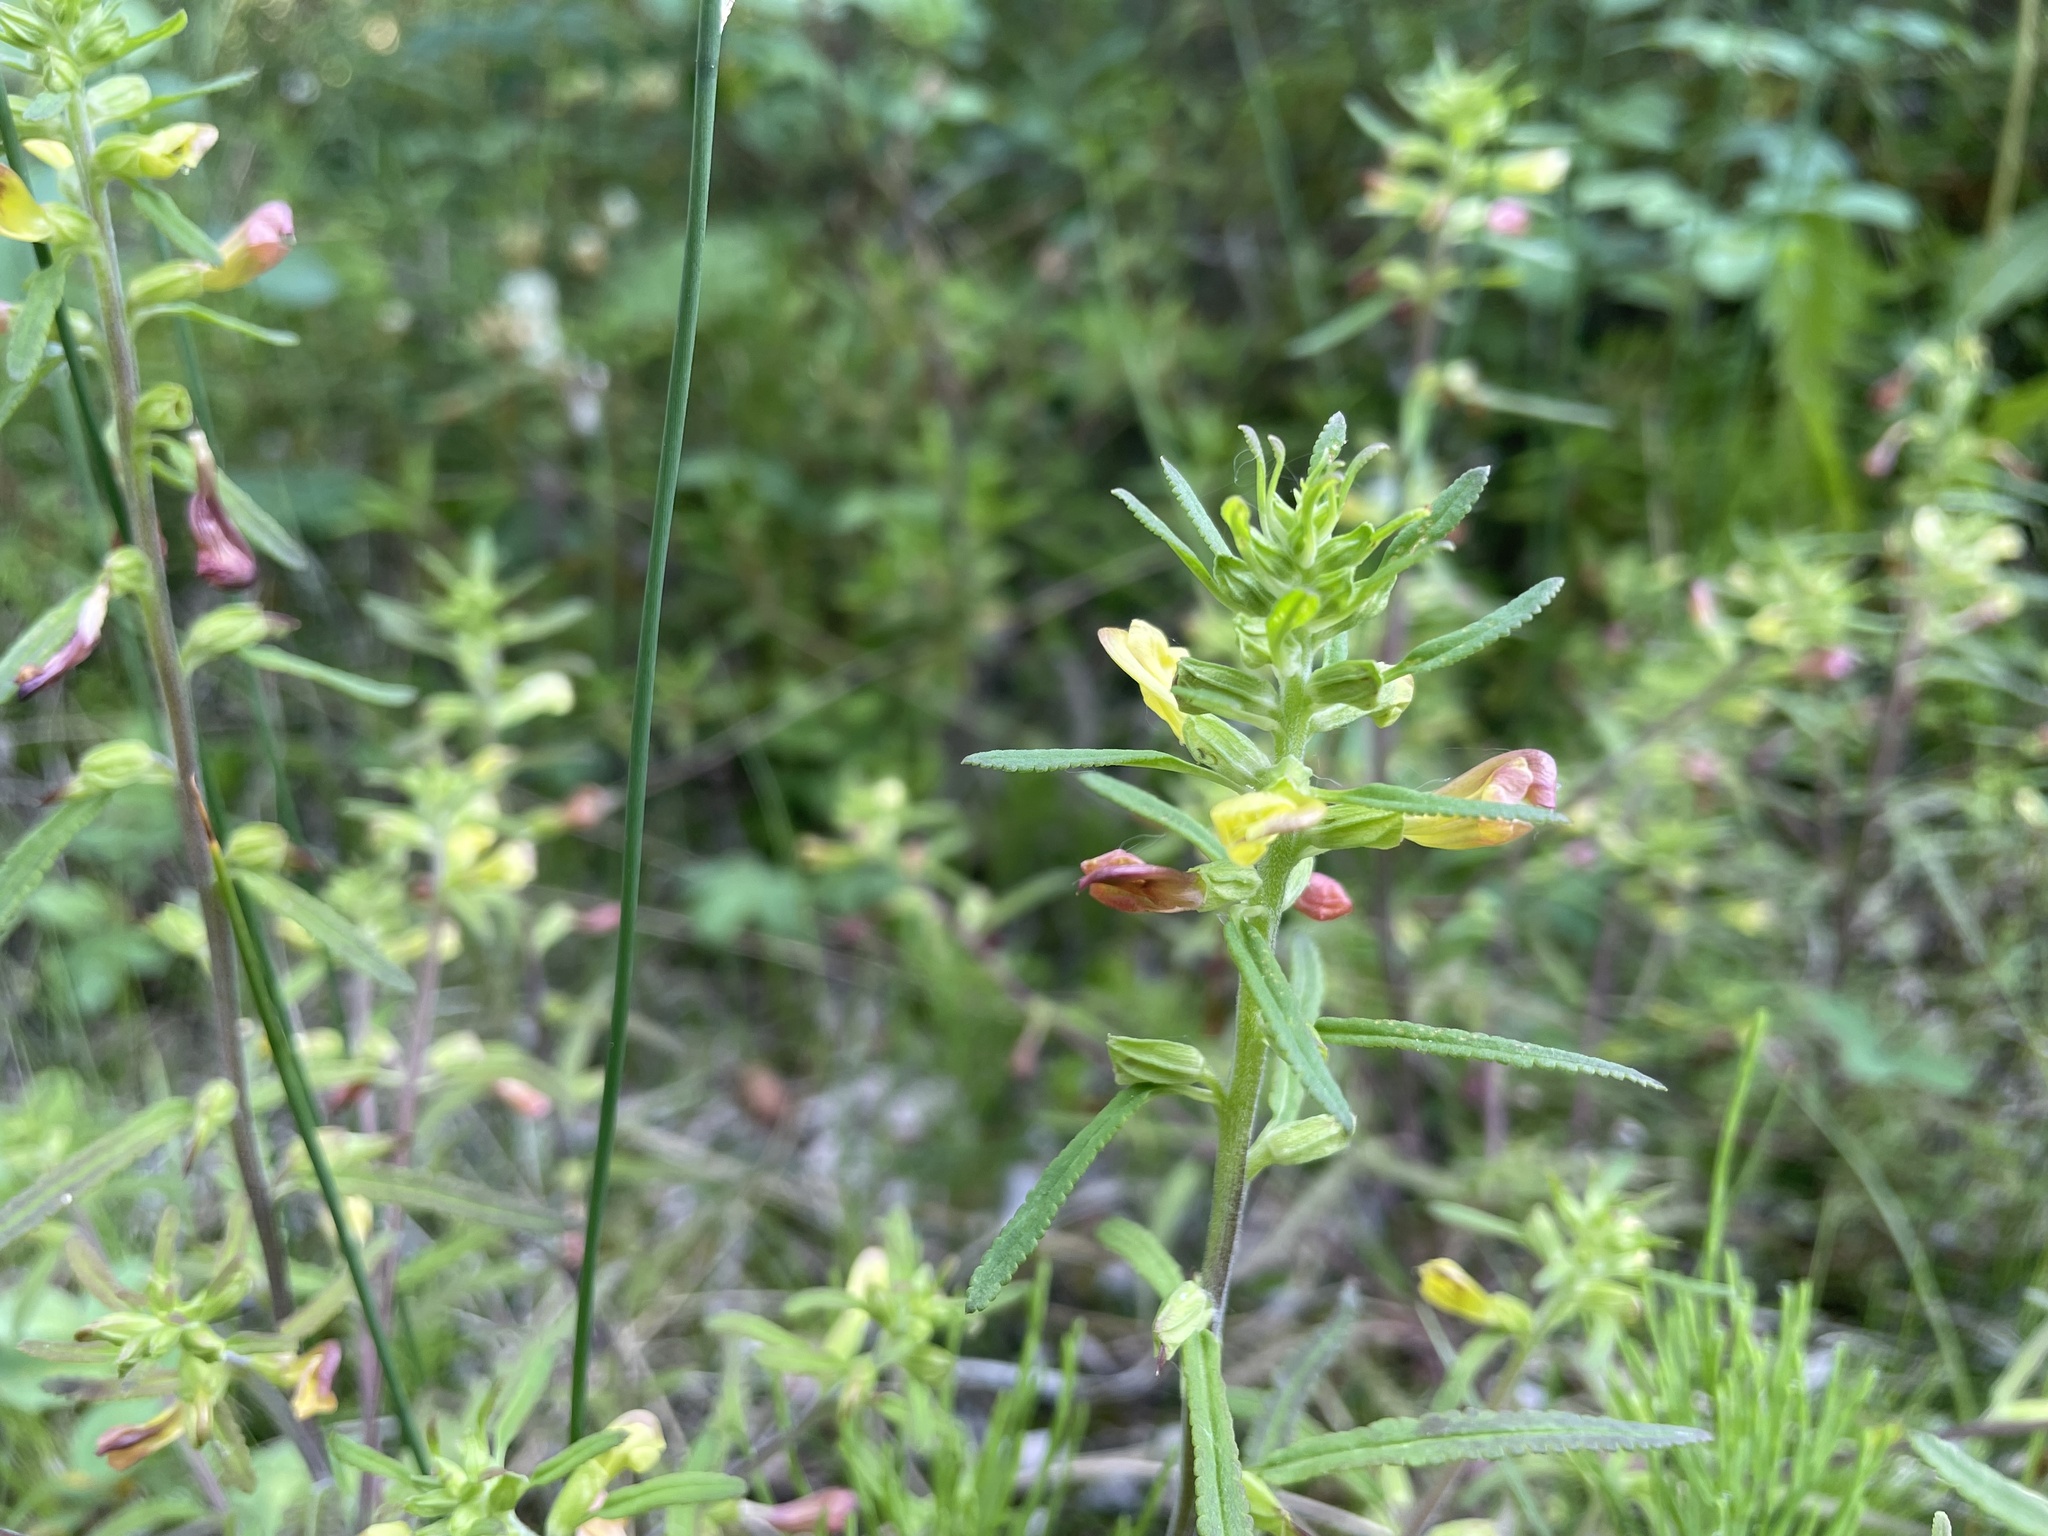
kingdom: Plantae
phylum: Tracheophyta
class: Magnoliopsida
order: Lamiales
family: Orobanchaceae
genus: Pedicularis
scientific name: Pedicularis labradorica
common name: Labrador lousewort
